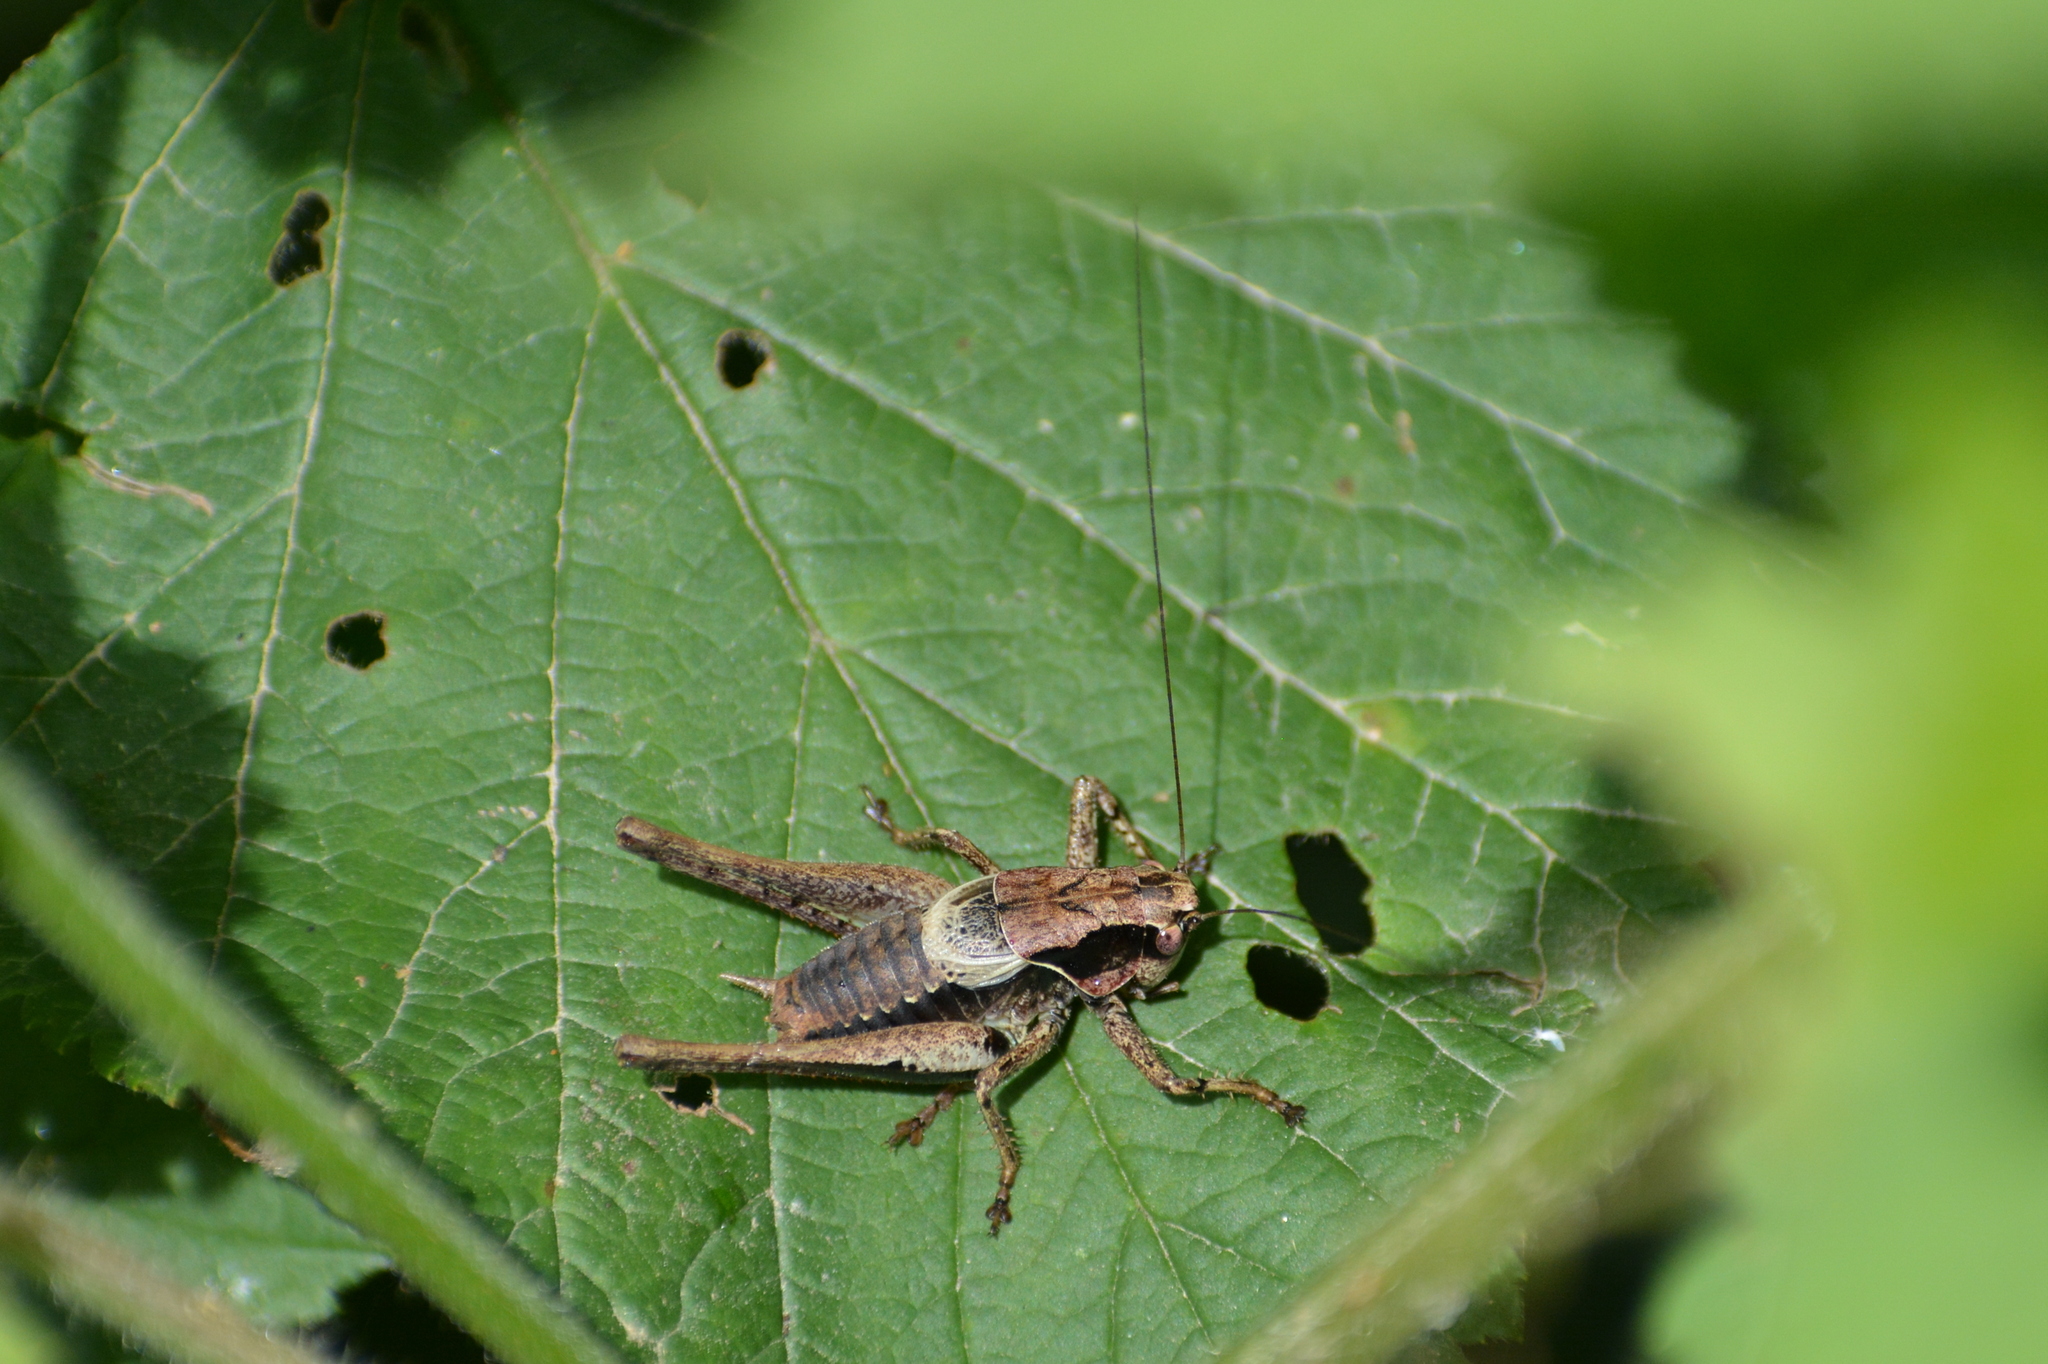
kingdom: Animalia
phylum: Arthropoda
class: Insecta
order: Orthoptera
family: Tettigoniidae
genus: Pholidoptera
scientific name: Pholidoptera griseoaptera
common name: Dark bush-cricket
